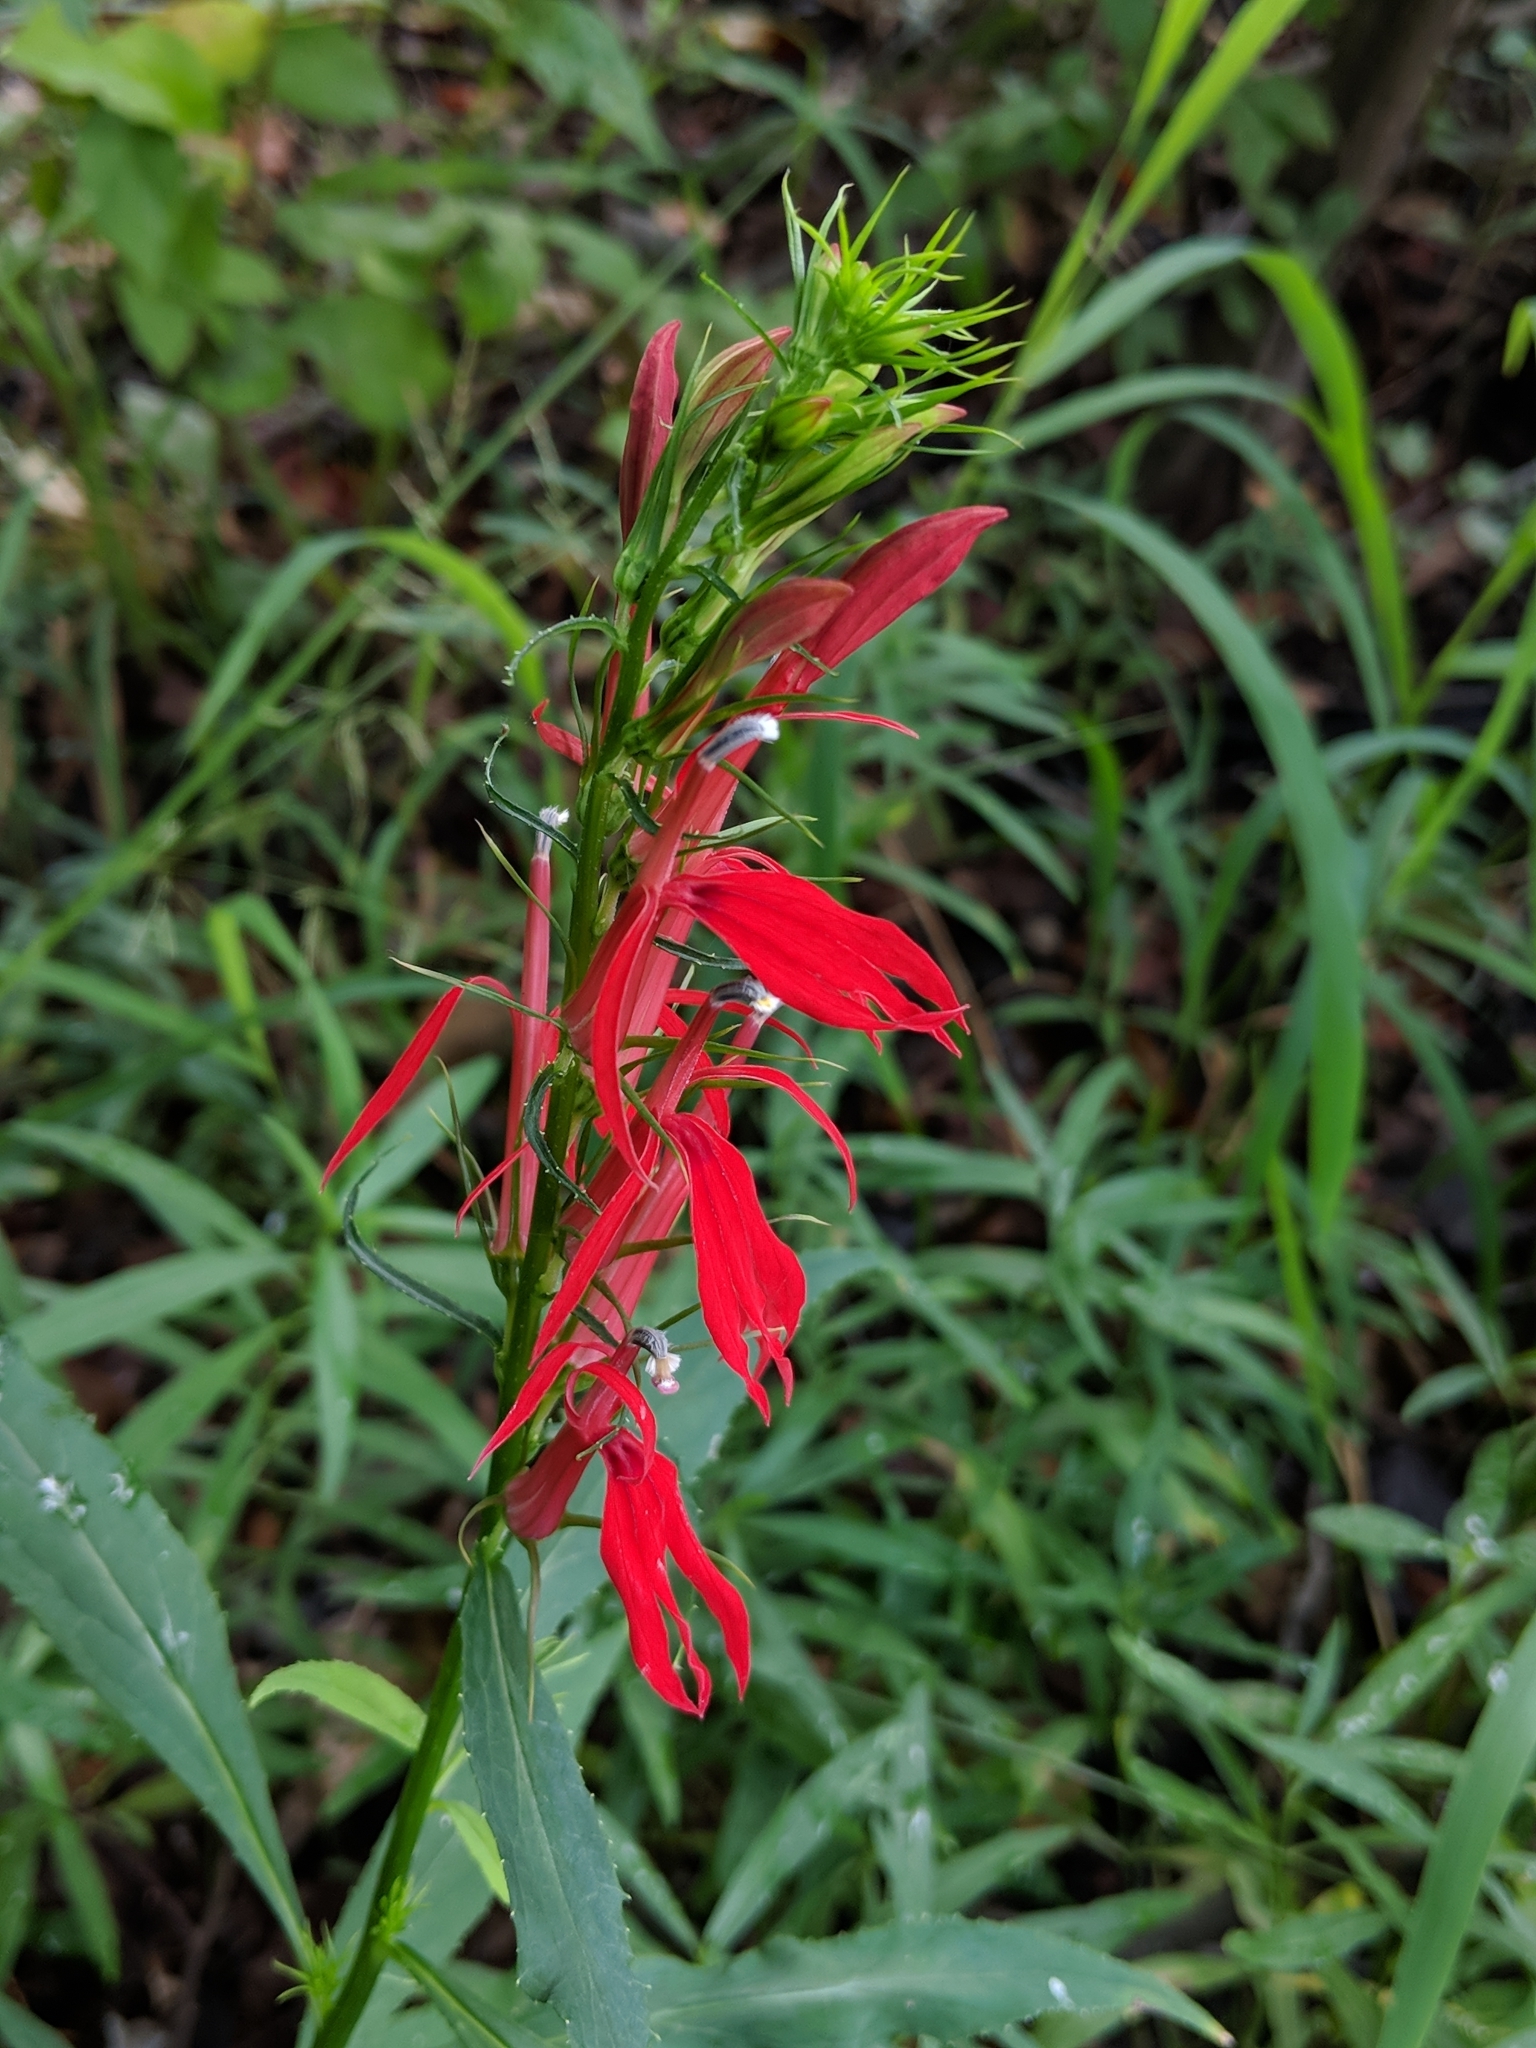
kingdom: Plantae
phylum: Tracheophyta
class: Magnoliopsida
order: Asterales
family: Campanulaceae
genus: Lobelia
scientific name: Lobelia cardinalis
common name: Cardinal flower
